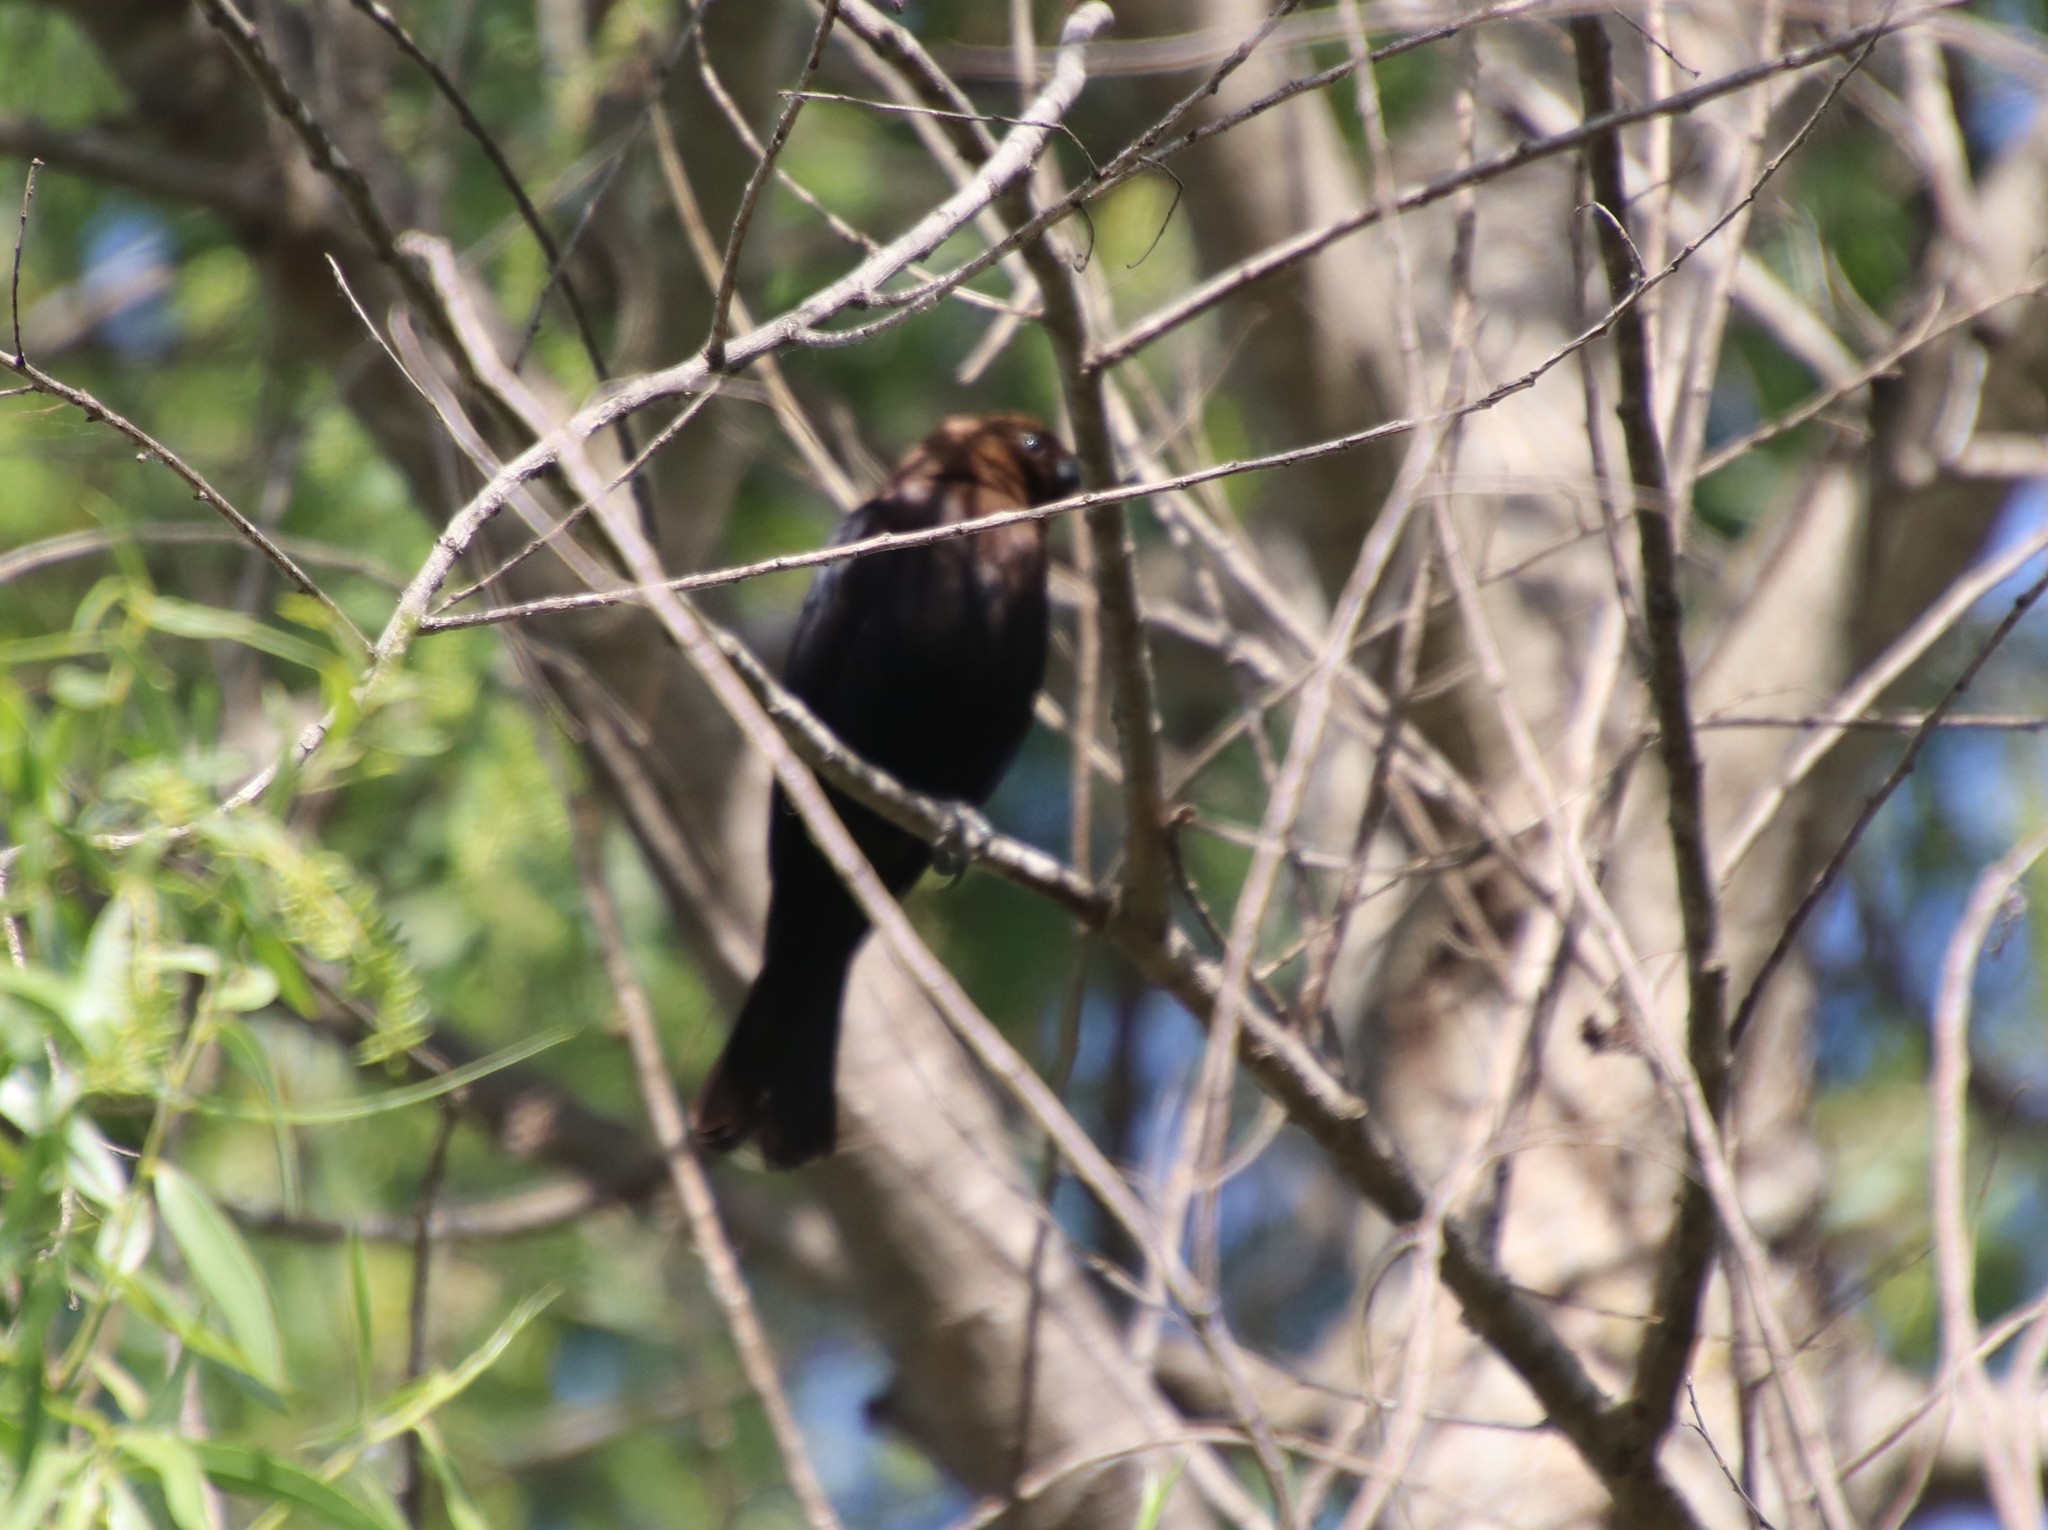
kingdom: Animalia
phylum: Chordata
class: Aves
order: Passeriformes
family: Icteridae
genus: Molothrus
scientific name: Molothrus ater
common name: Brown-headed cowbird
